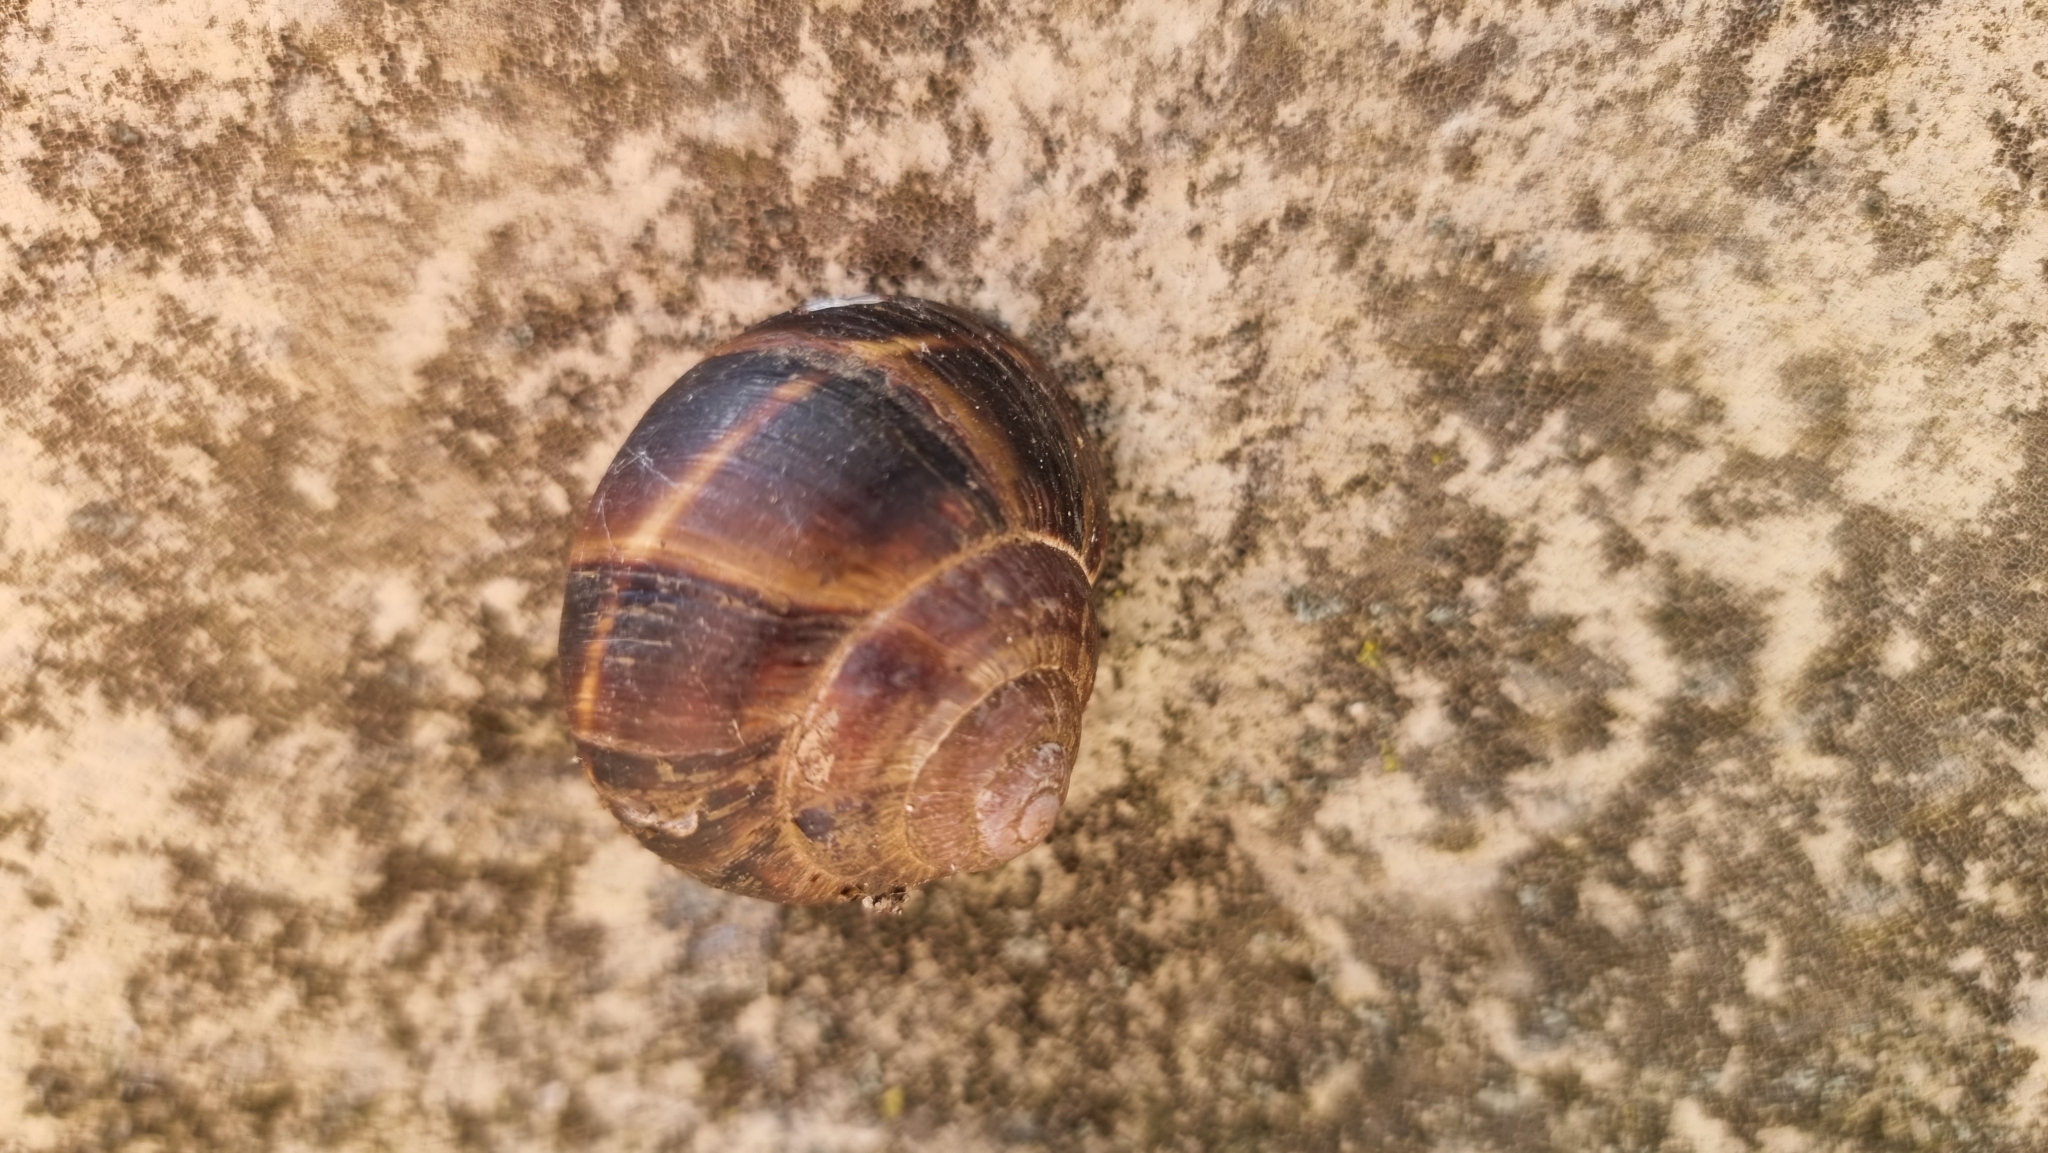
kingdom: Animalia
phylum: Mollusca
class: Gastropoda
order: Stylommatophora
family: Helicidae
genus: Helix
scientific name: Helix lucorum
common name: Turkish snail
